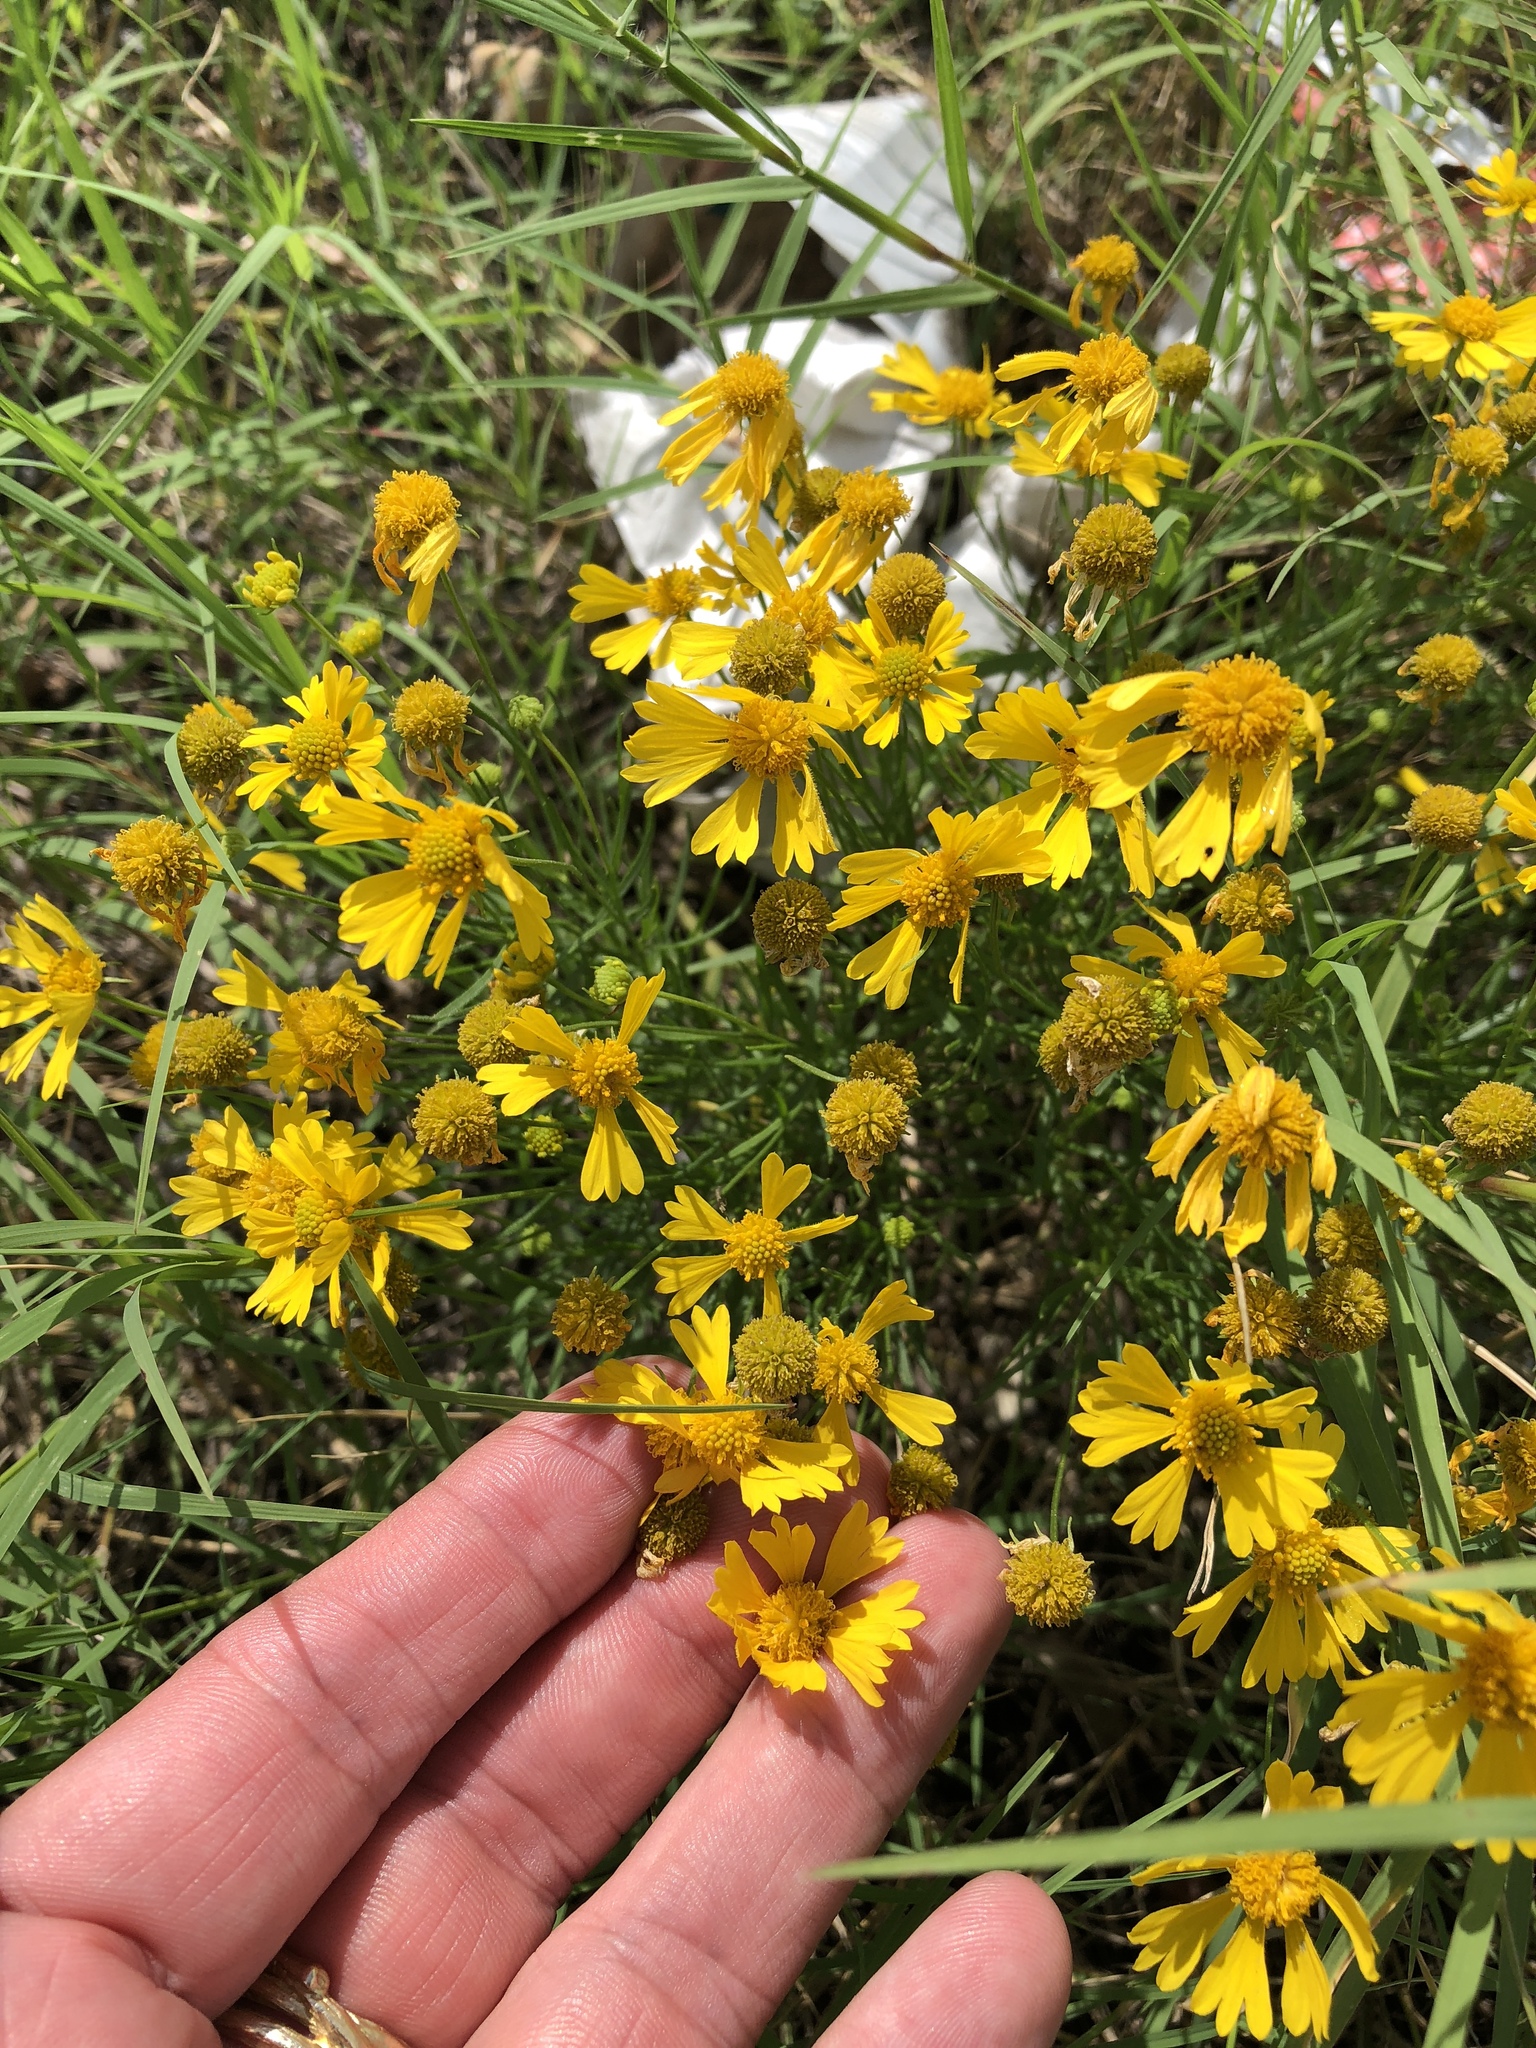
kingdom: Plantae
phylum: Tracheophyta
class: Magnoliopsida
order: Asterales
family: Asteraceae
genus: Helenium
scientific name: Helenium amarum
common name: Bitter sneezeweed
